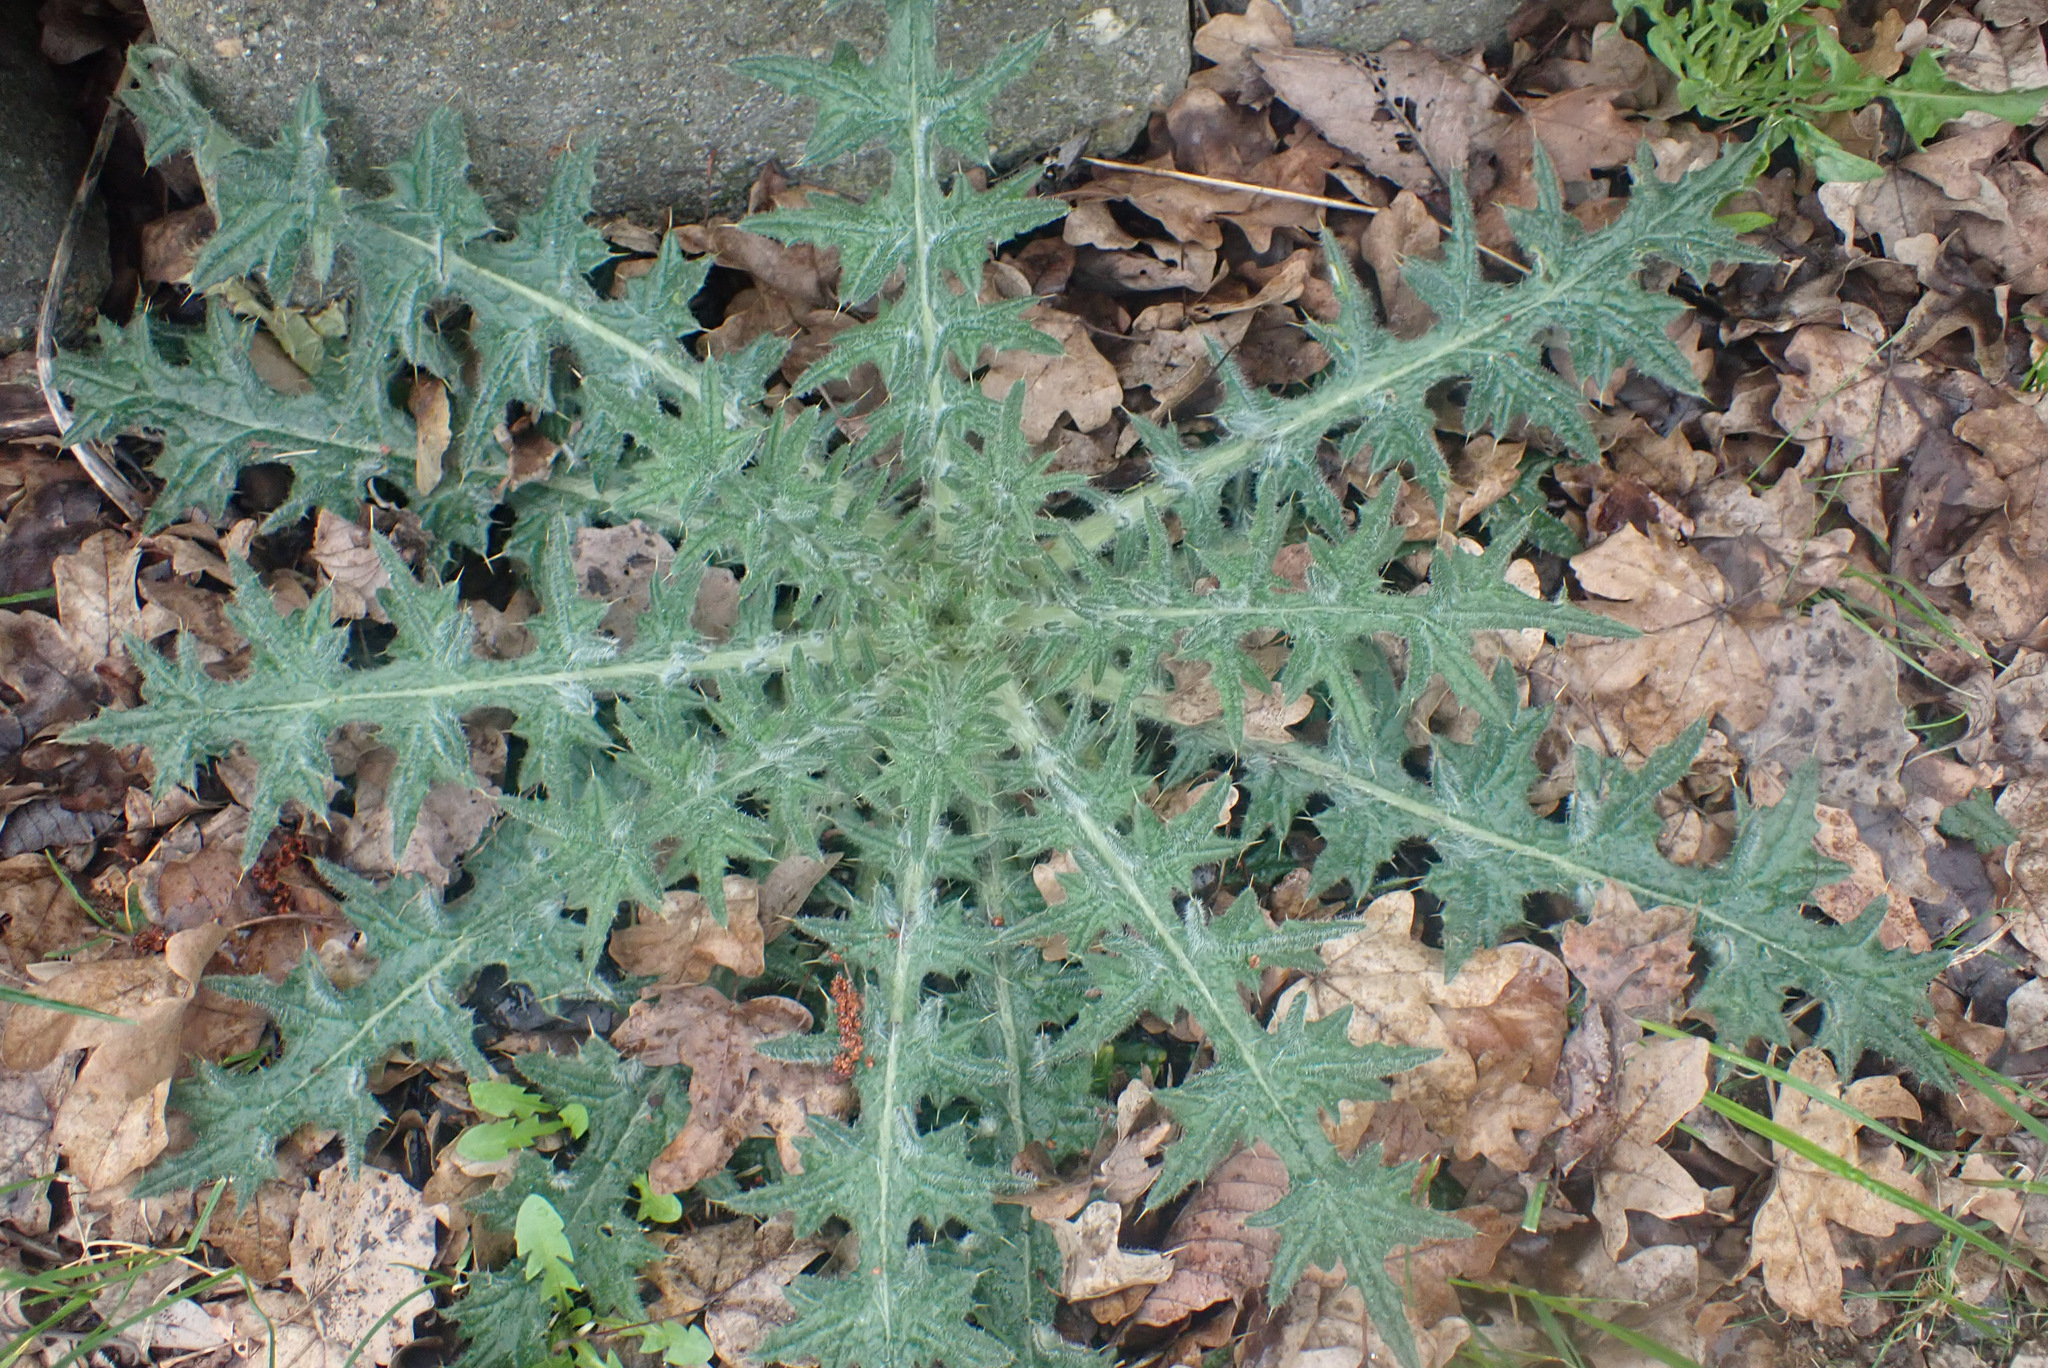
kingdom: Plantae
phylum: Tracheophyta
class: Magnoliopsida
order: Asterales
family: Asteraceae
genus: Cirsium
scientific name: Cirsium vulgare
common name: Bull thistle
